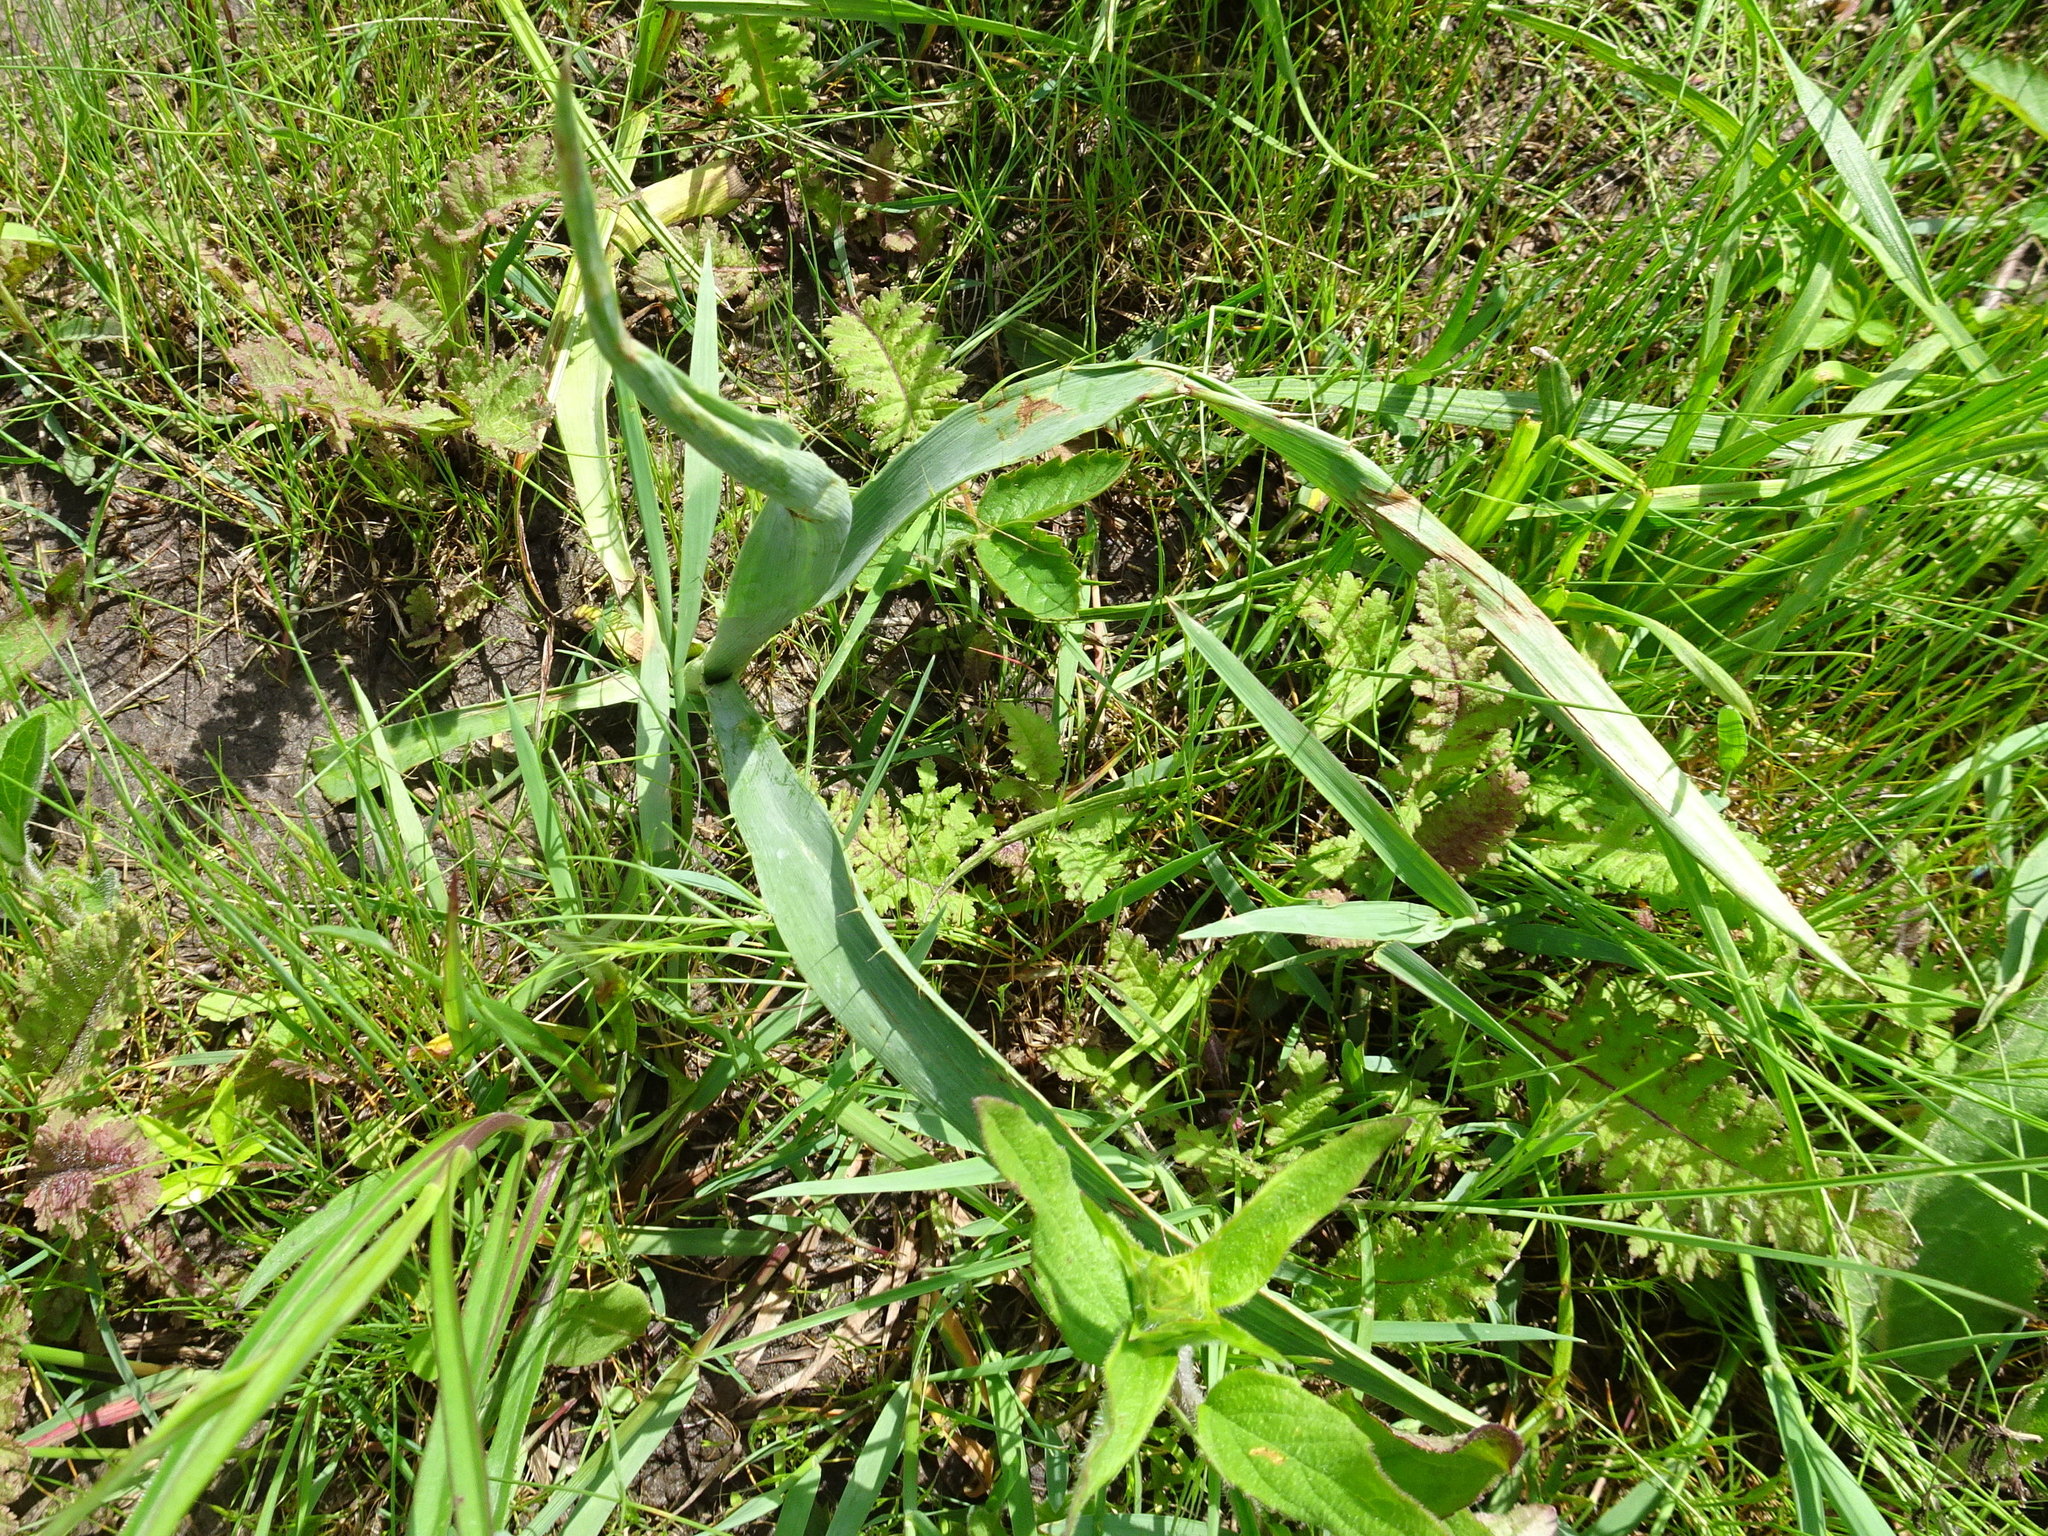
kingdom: Plantae
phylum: Tracheophyta
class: Magnoliopsida
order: Apiales
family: Apiaceae
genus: Eryngium
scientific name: Eryngium yuccifolium
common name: Button eryngo
